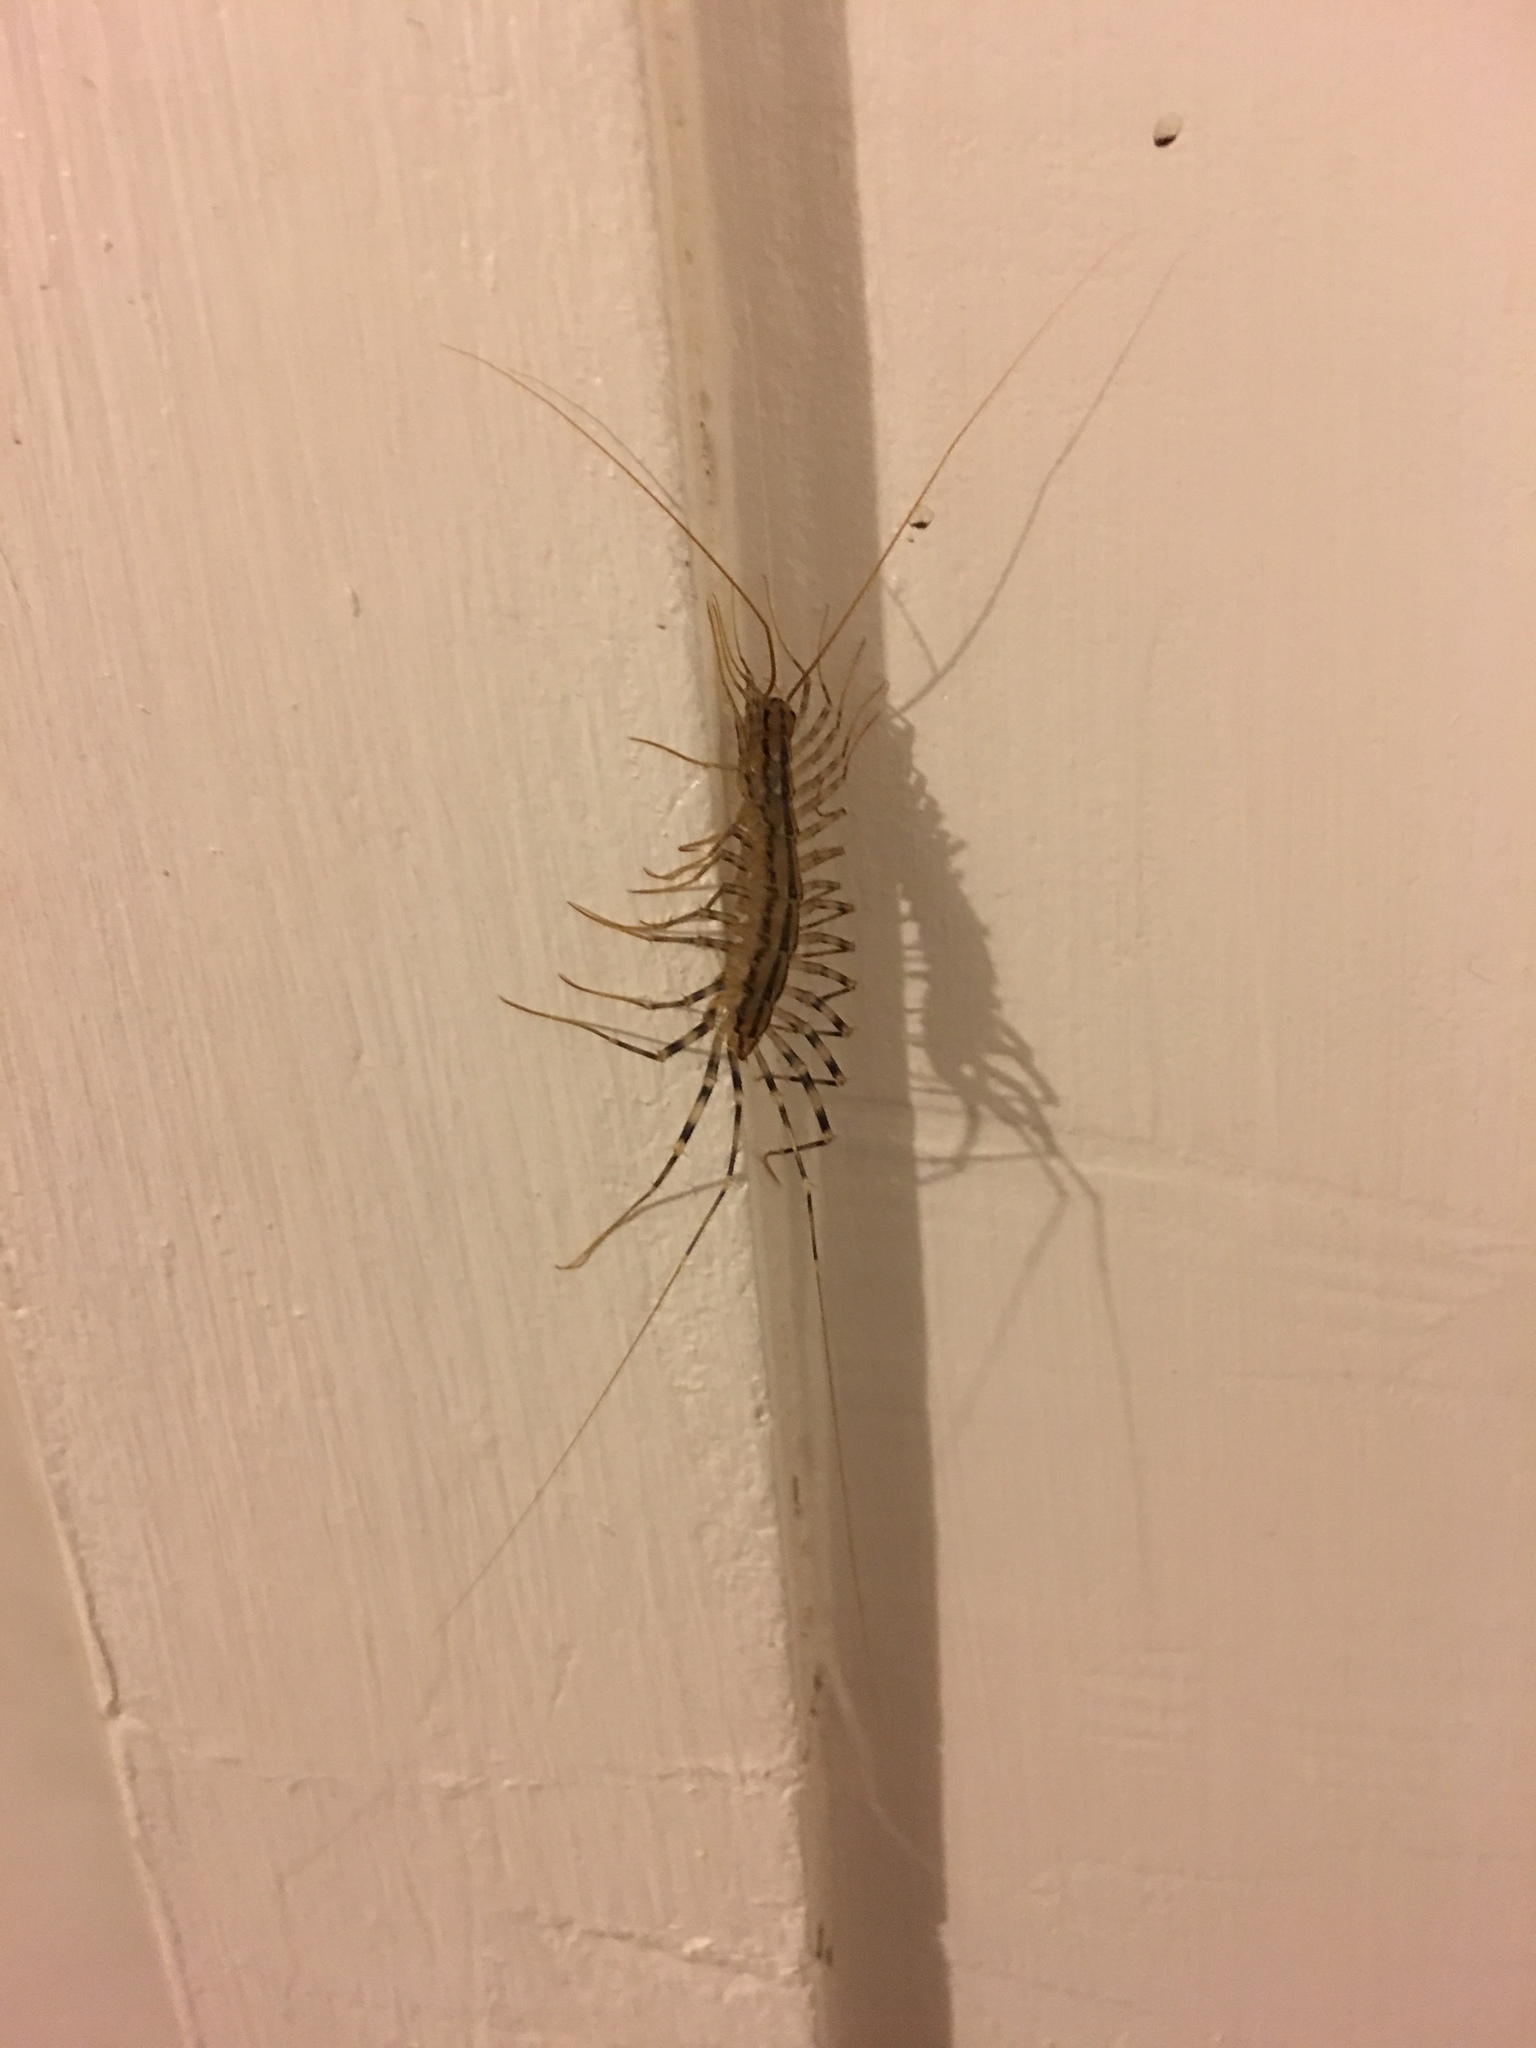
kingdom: Animalia
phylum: Arthropoda
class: Chilopoda
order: Scutigeromorpha
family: Scutigeridae
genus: Scutigera
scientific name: Scutigera coleoptrata
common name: House centipede
